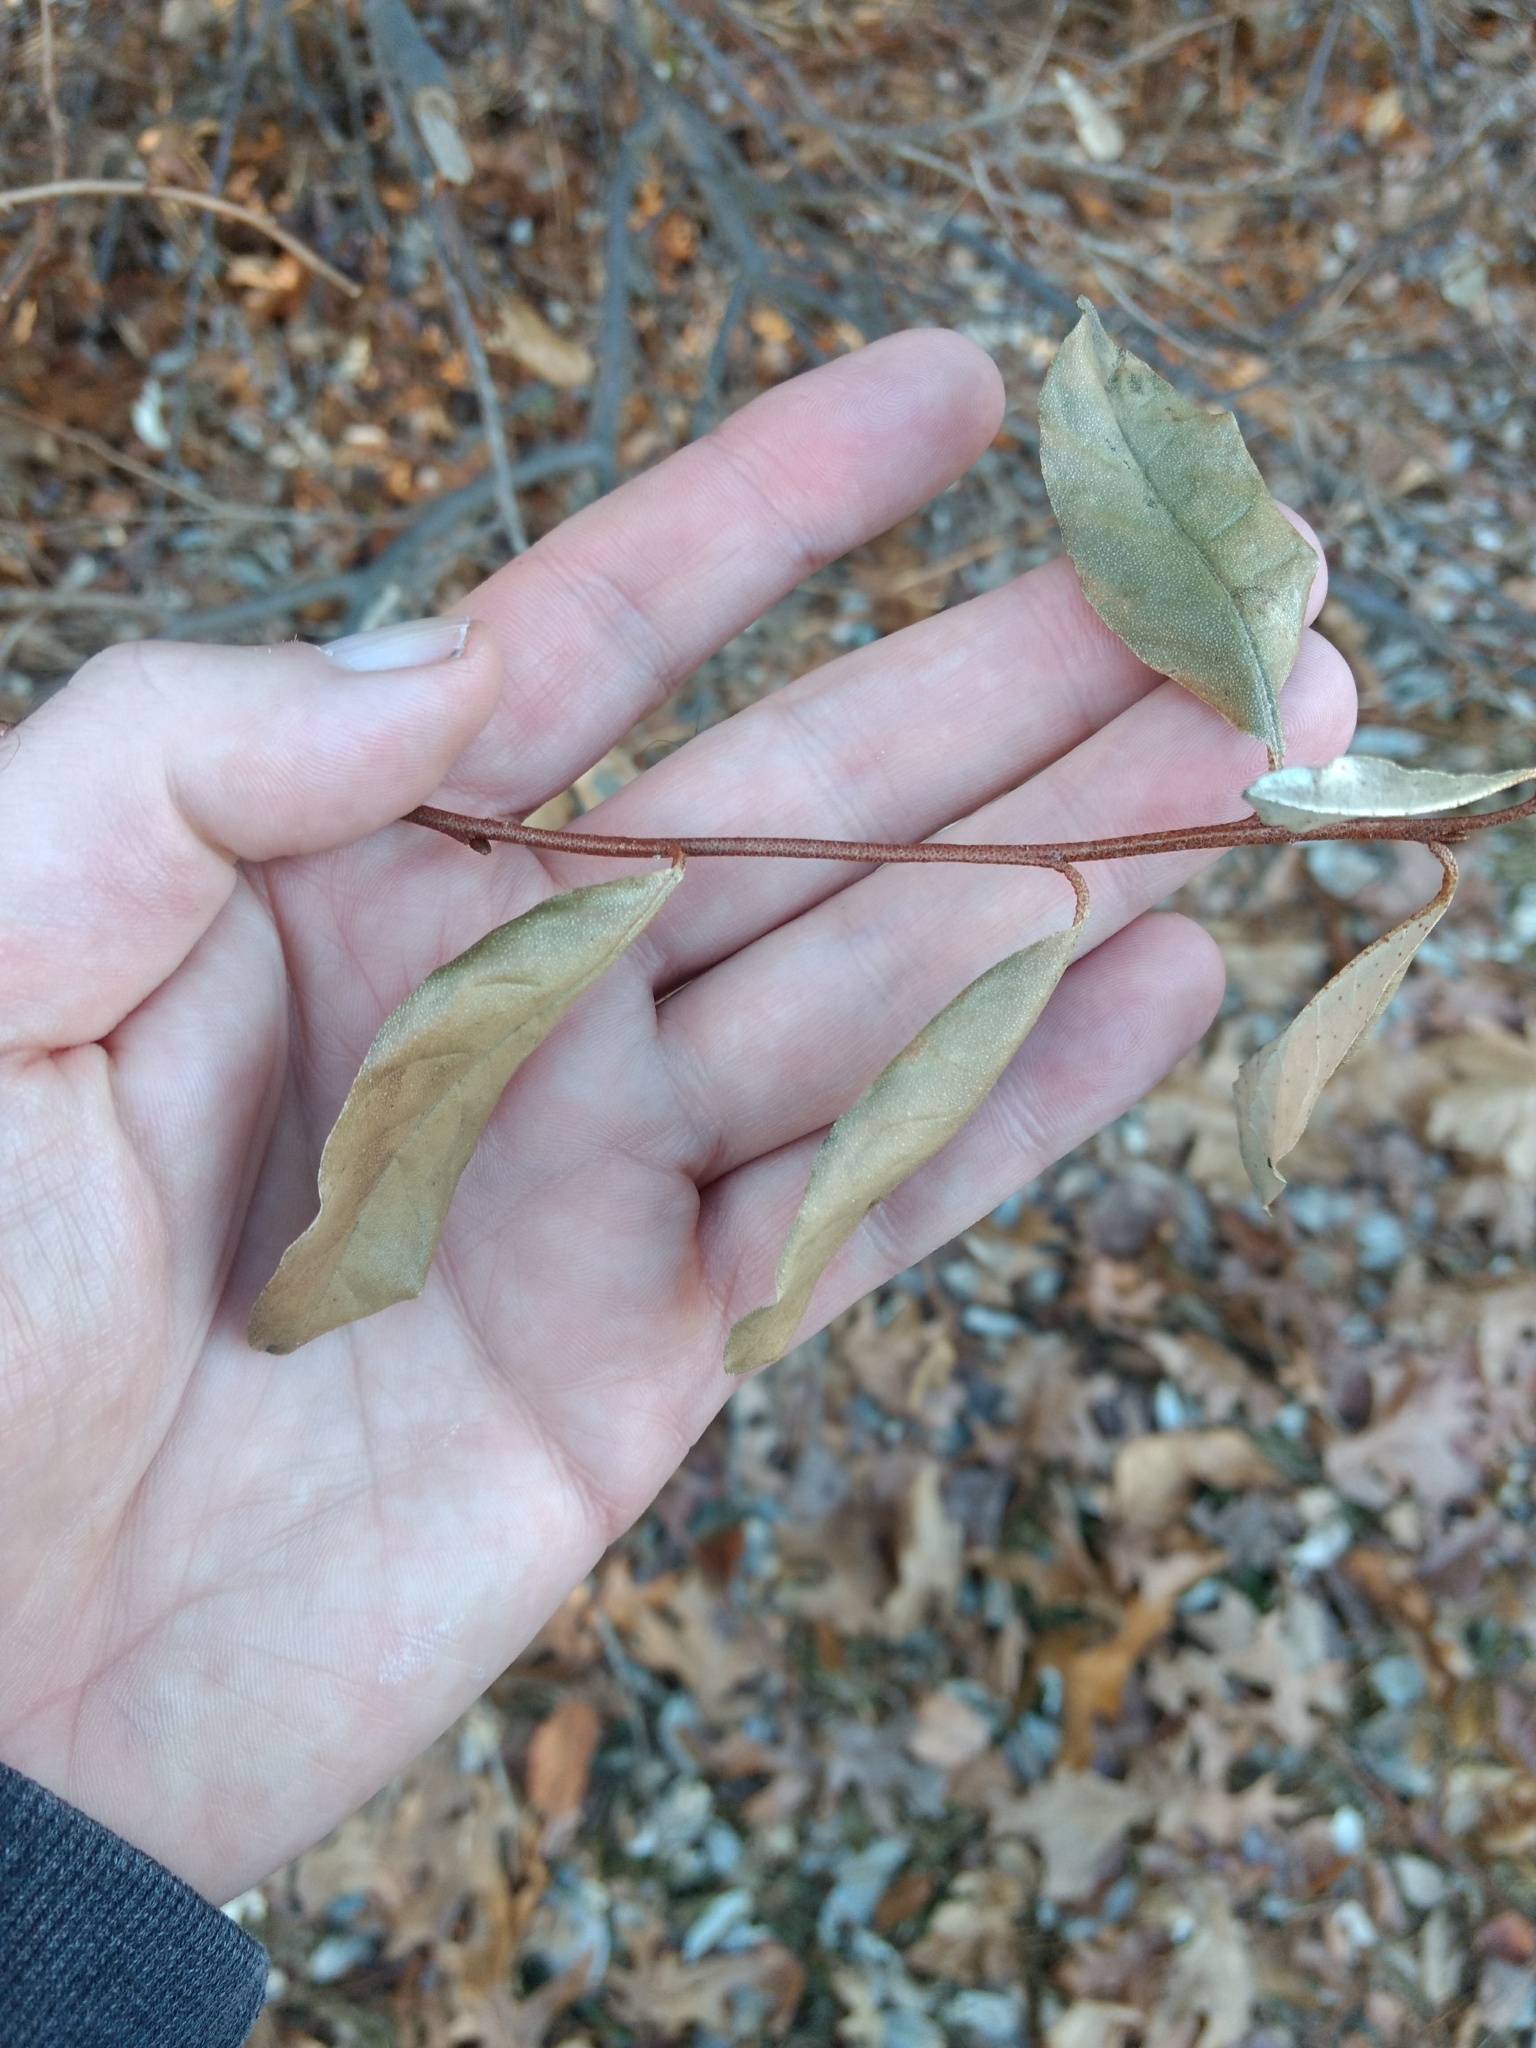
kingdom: Plantae
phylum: Tracheophyta
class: Magnoliopsida
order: Rosales
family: Elaeagnaceae
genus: Elaeagnus
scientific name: Elaeagnus umbellata
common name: Autumn olive
